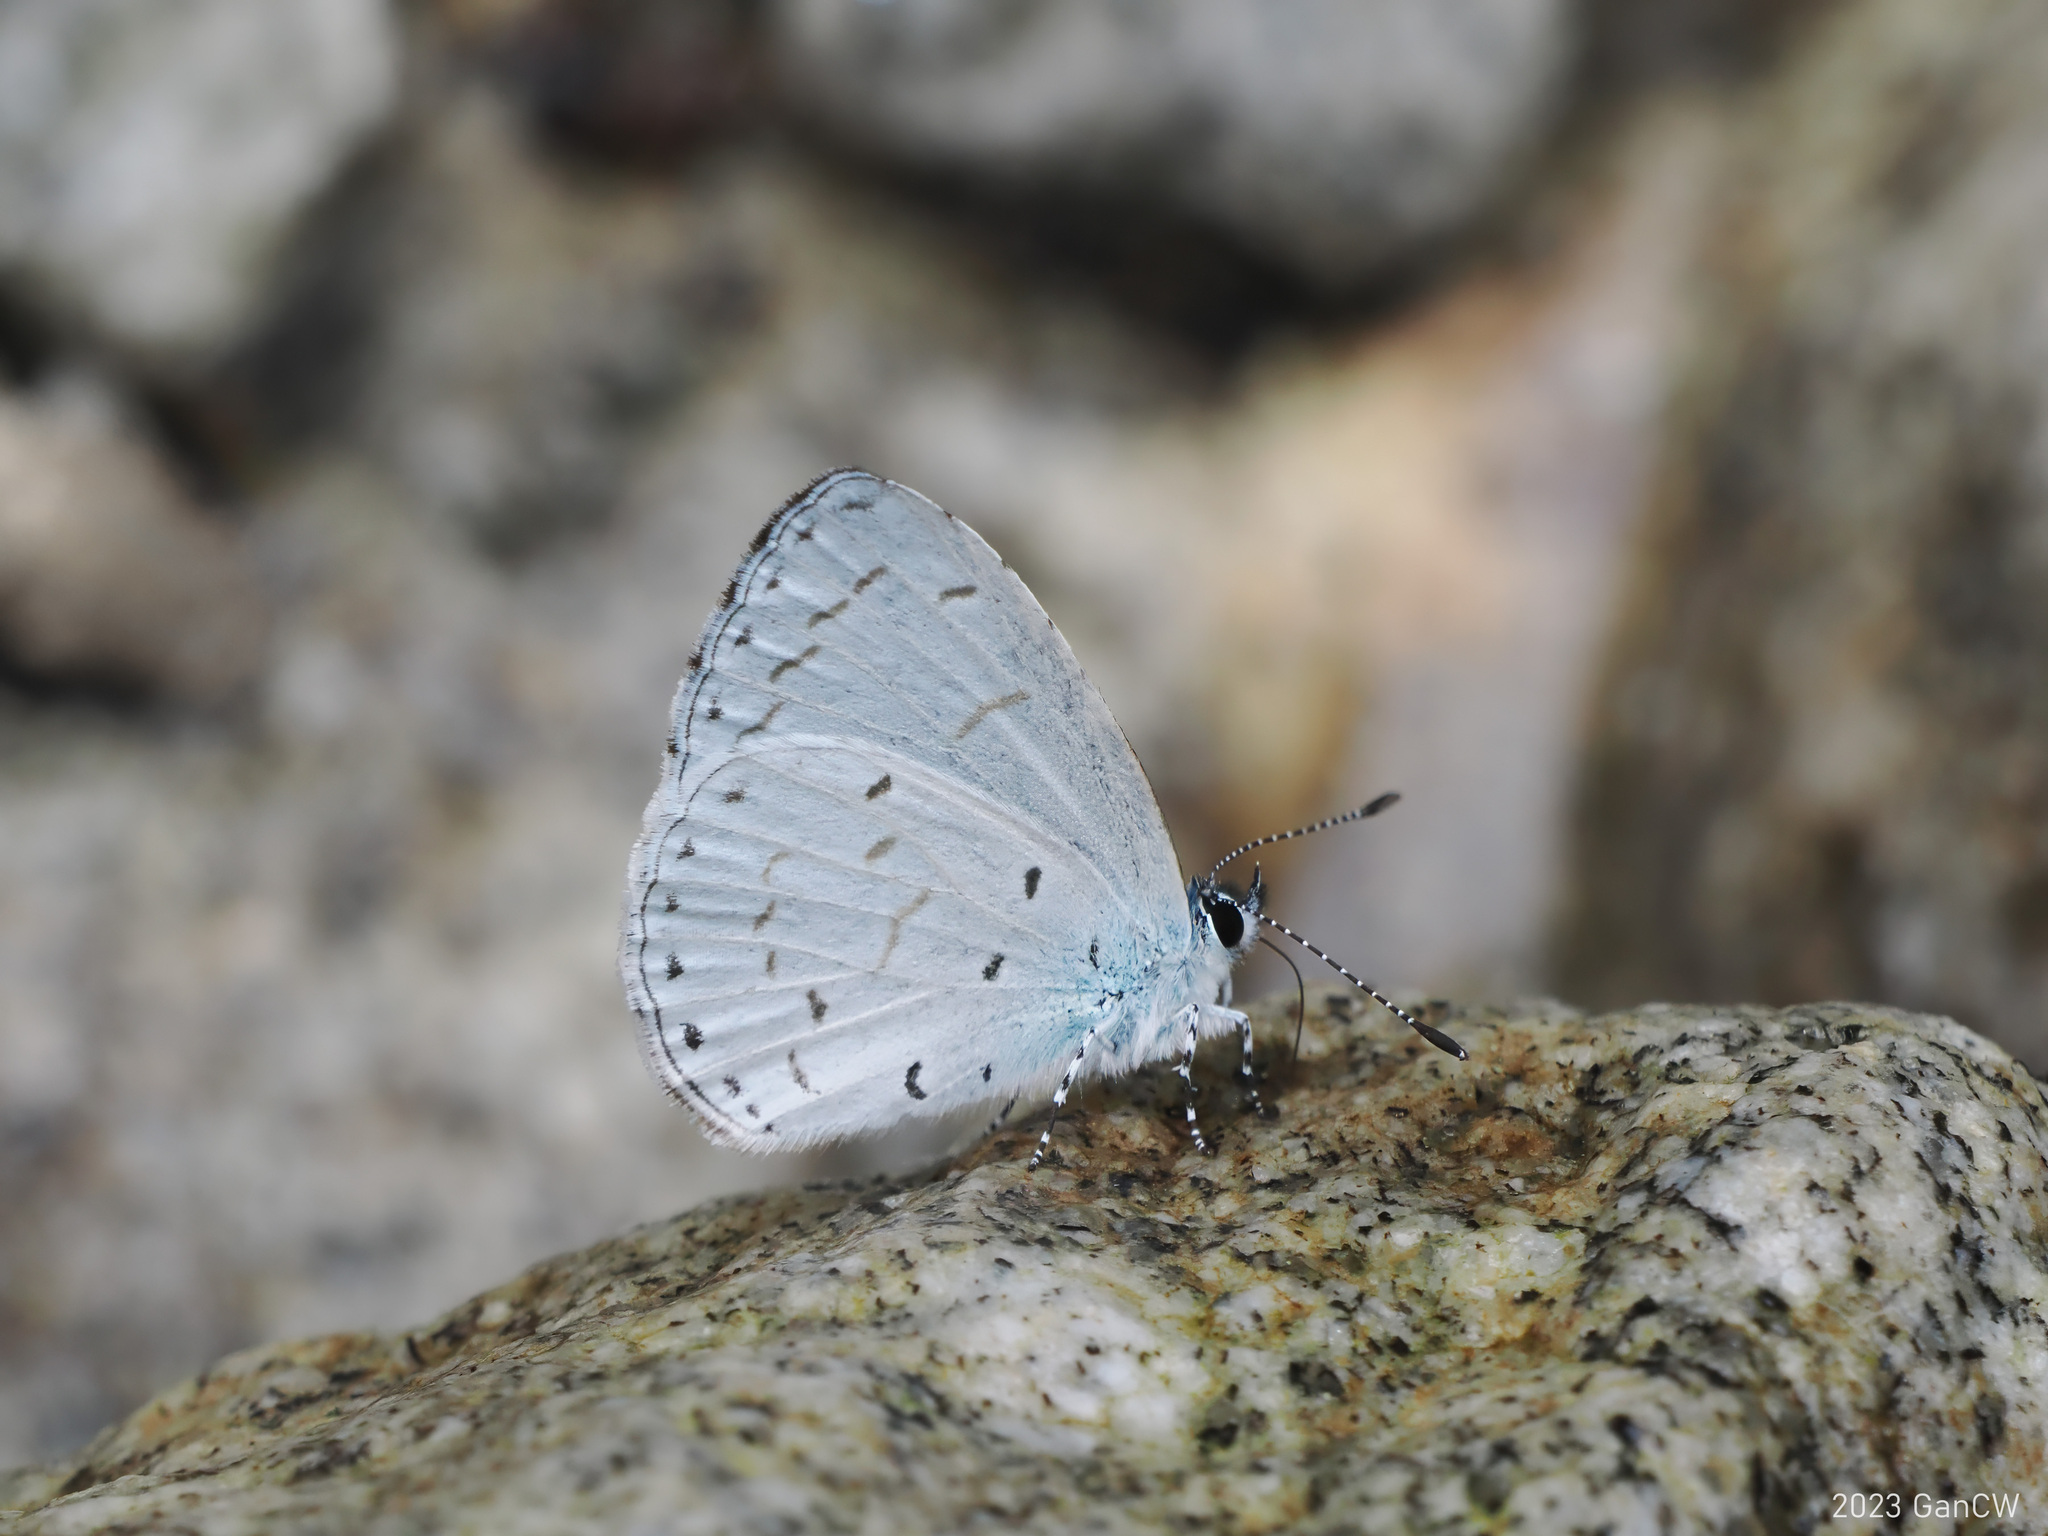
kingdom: Animalia
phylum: Arthropoda
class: Insecta
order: Lepidoptera
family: Lycaenidae
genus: Udara
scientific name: Udara camenae
